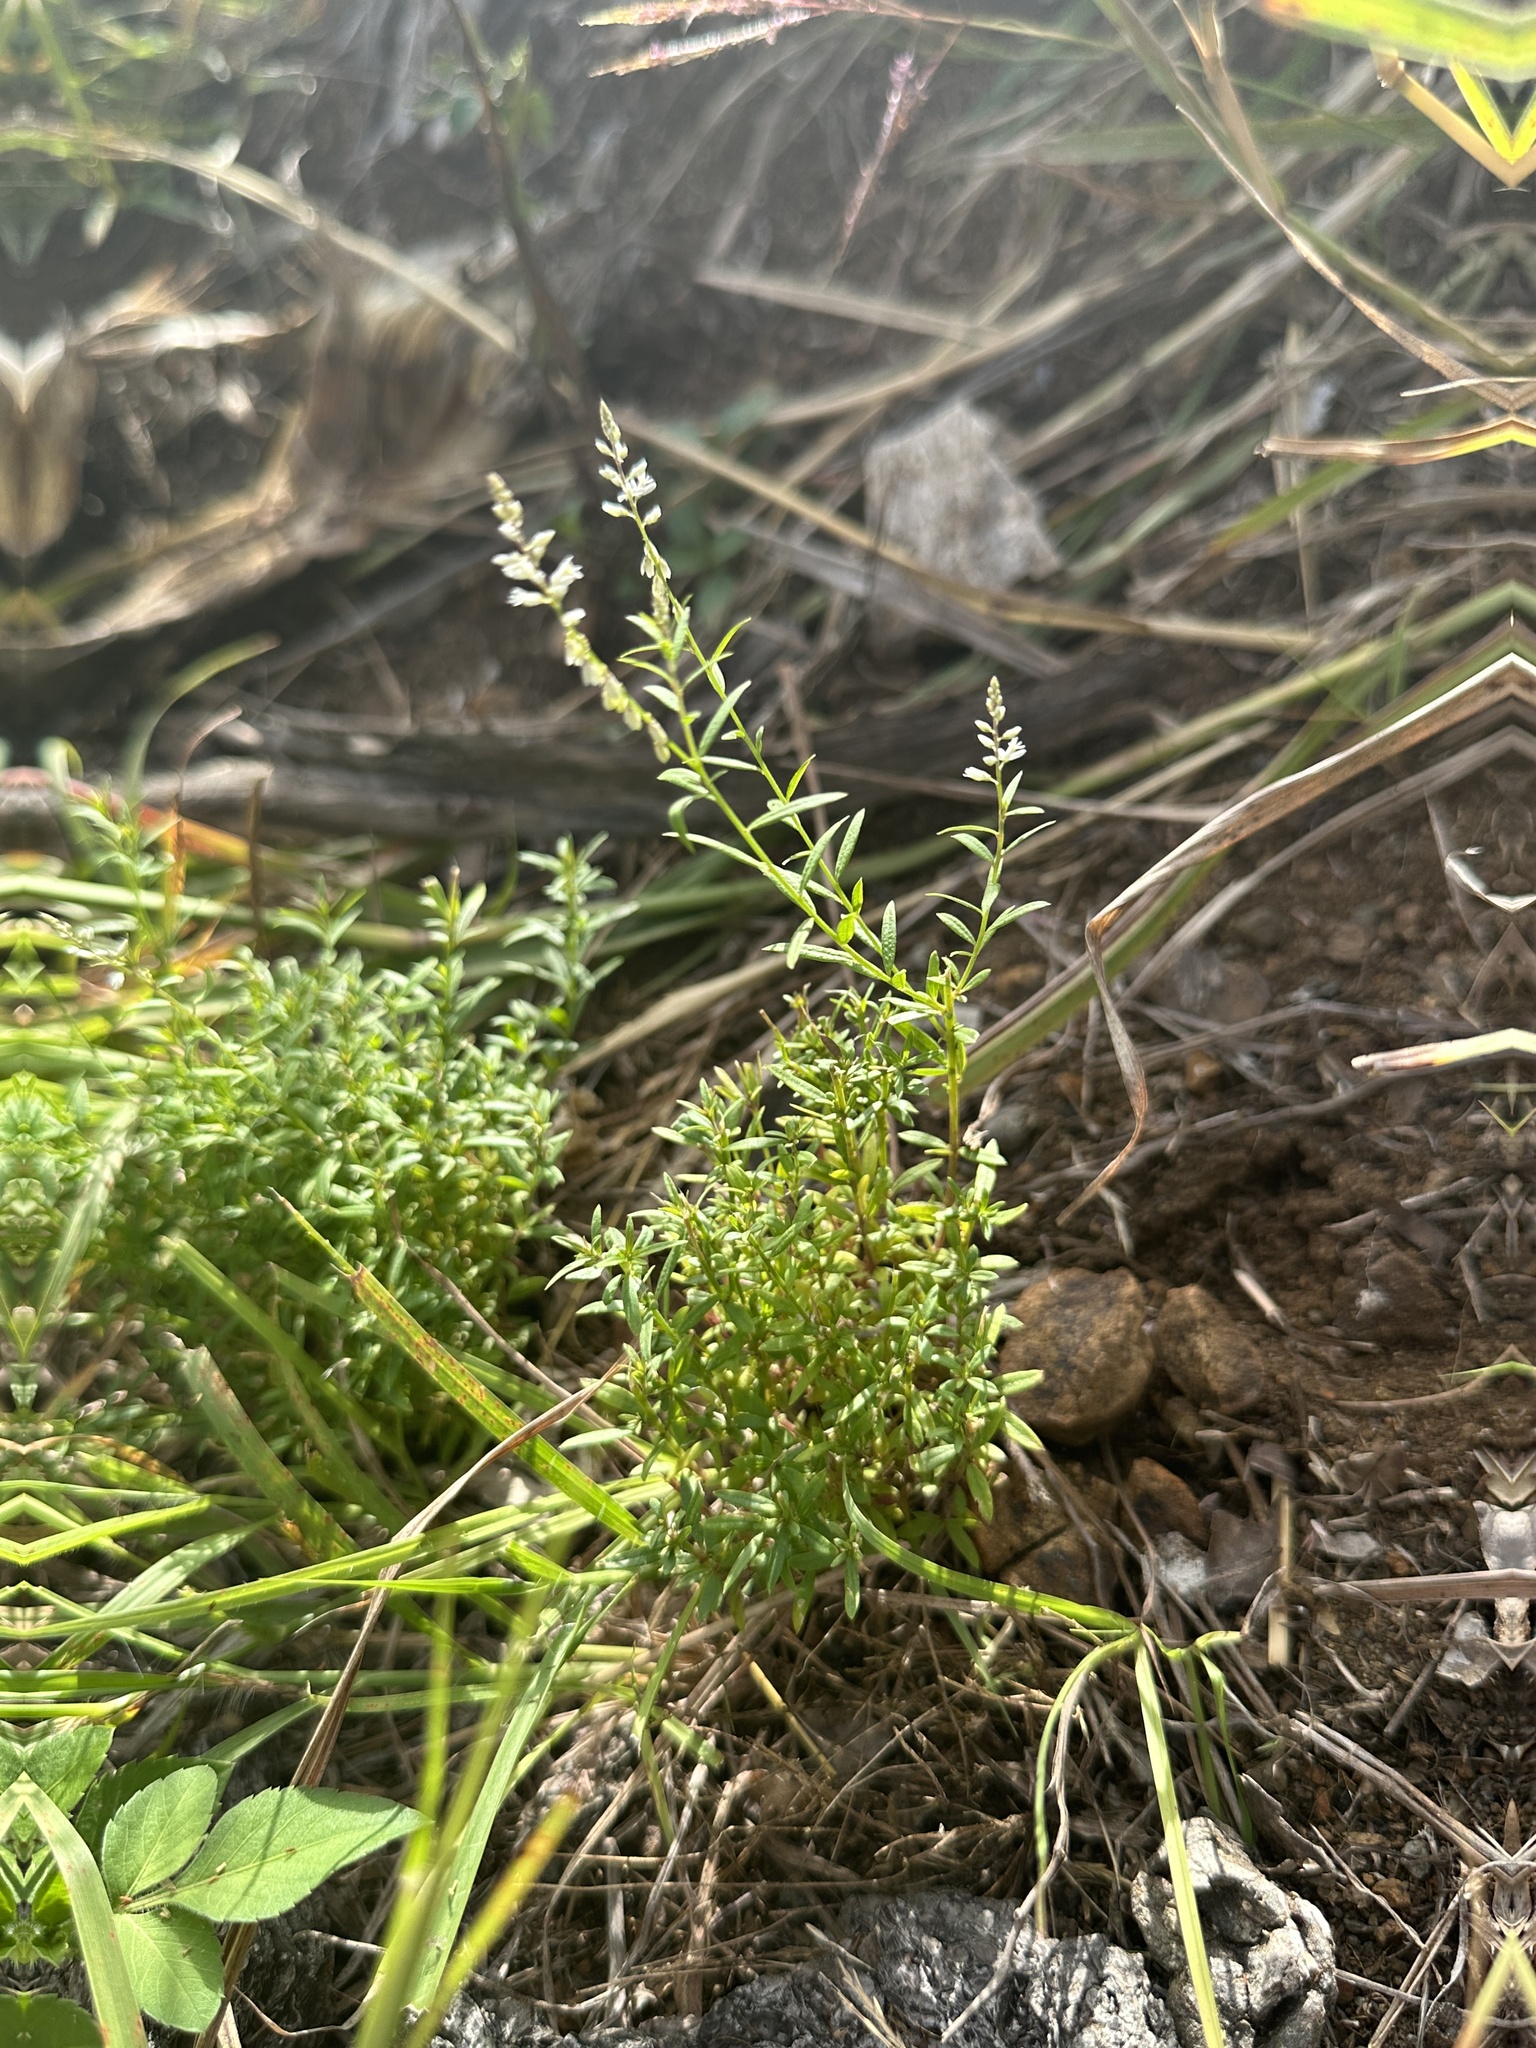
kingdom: Plantae
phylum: Tracheophyta
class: Magnoliopsida
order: Fabales
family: Polygalaceae
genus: Polygala
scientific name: Polygala paniculata
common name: Orosne
